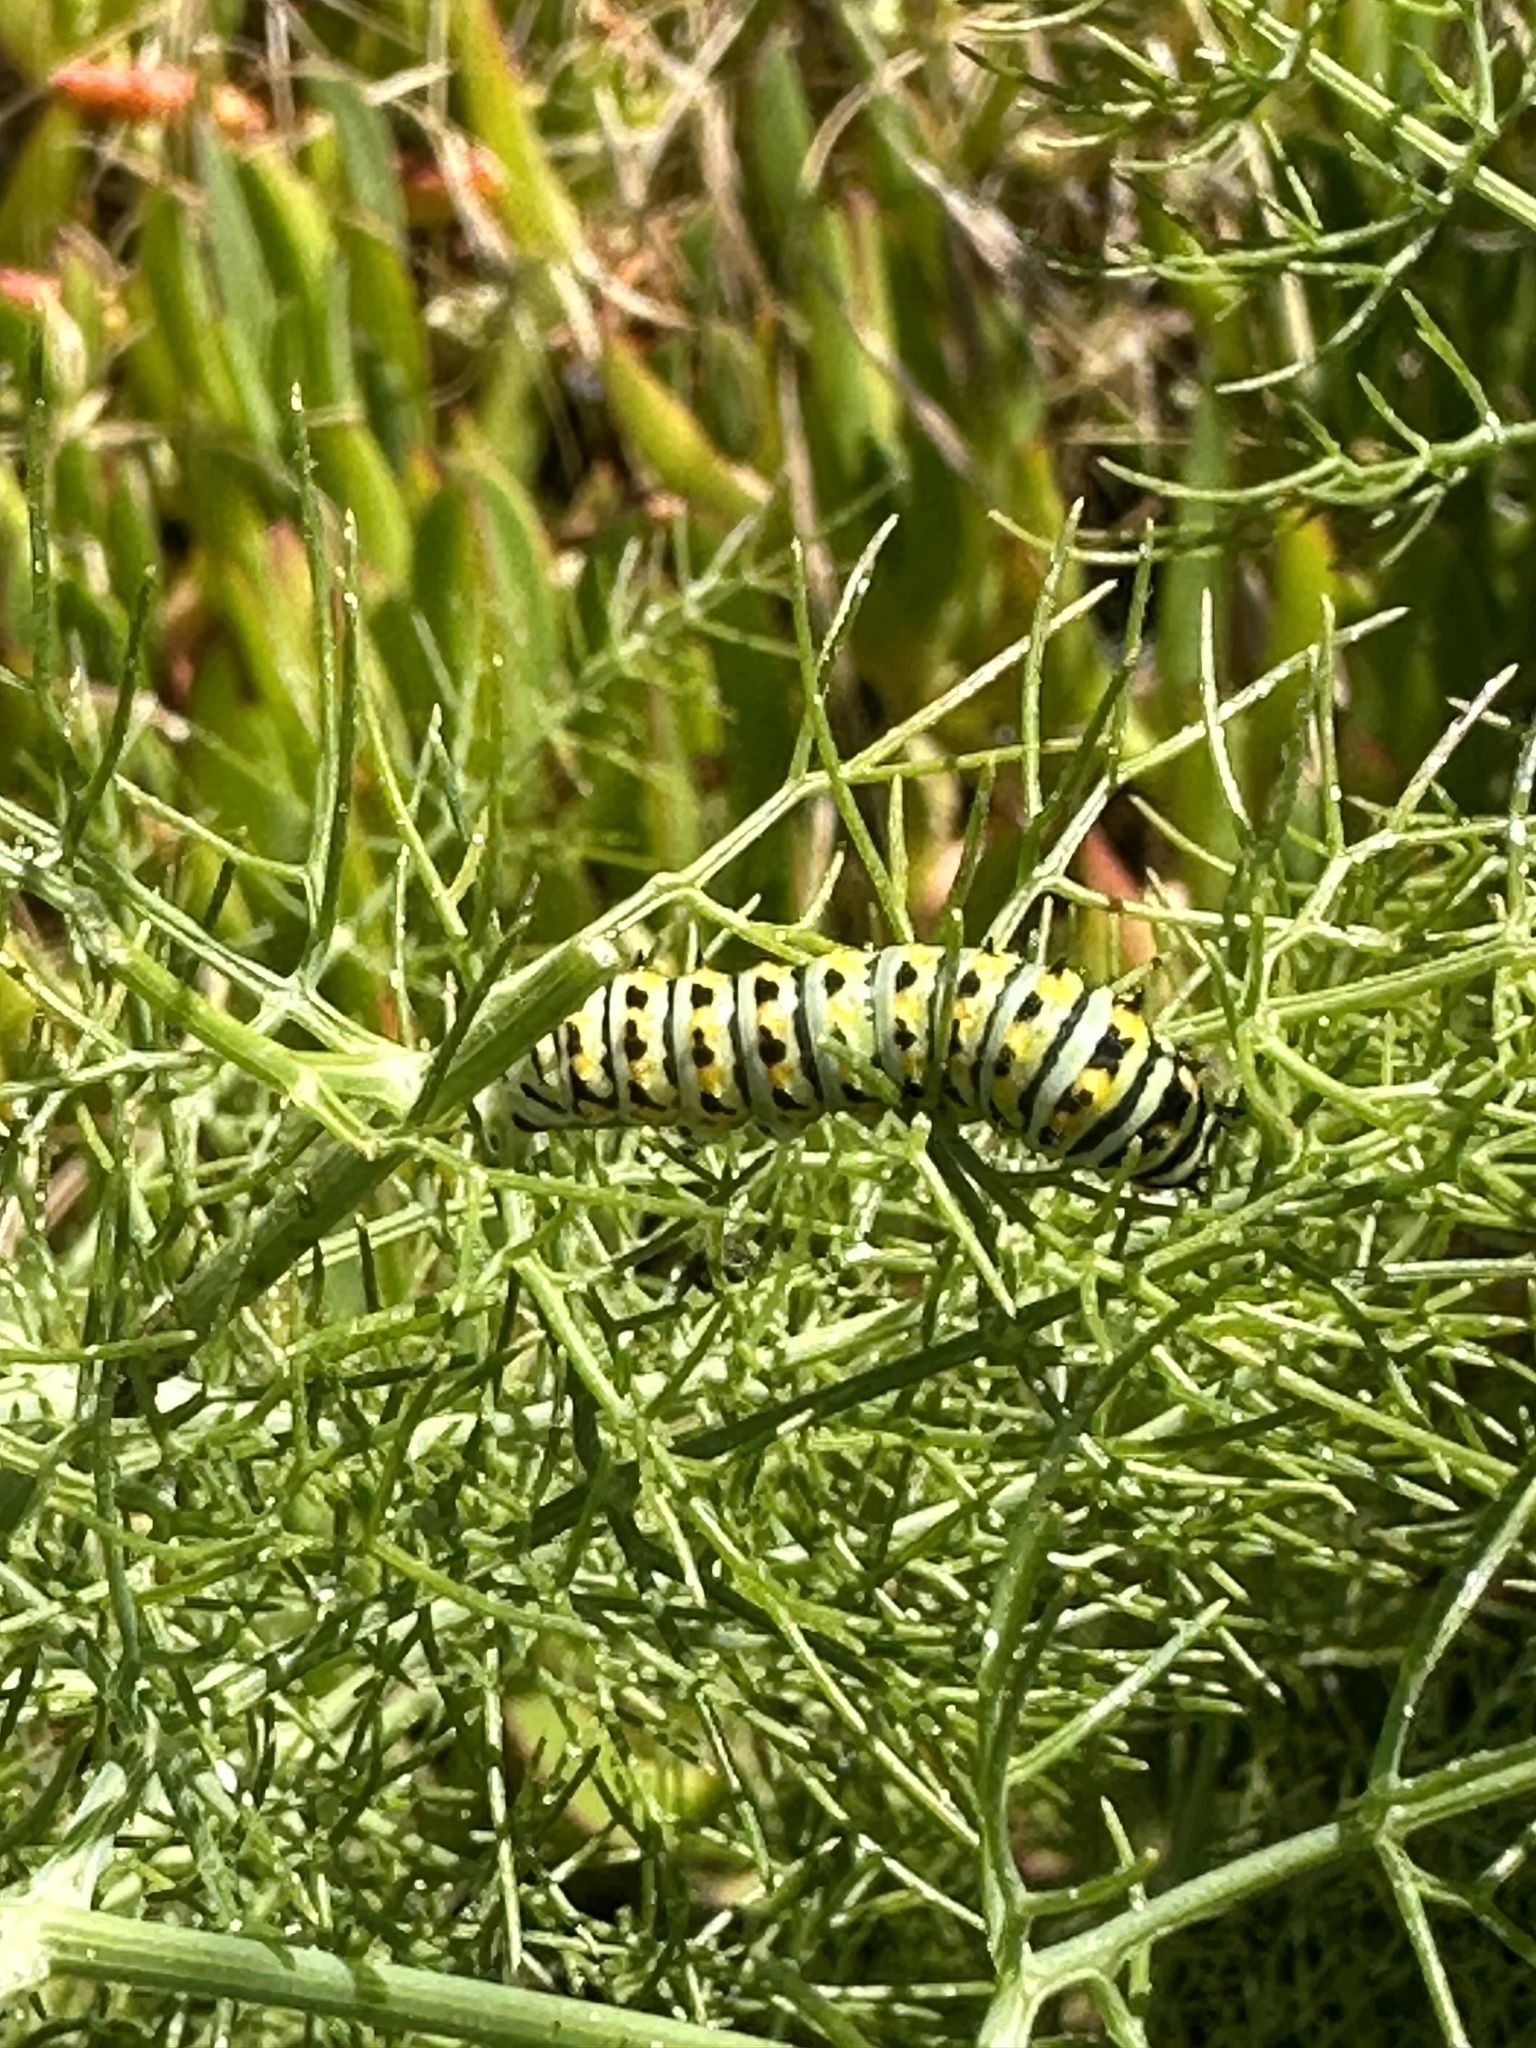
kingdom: Animalia
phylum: Arthropoda
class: Insecta
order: Lepidoptera
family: Papilionidae
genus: Papilio
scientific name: Papilio zelicaon
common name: Anise swallowtail
